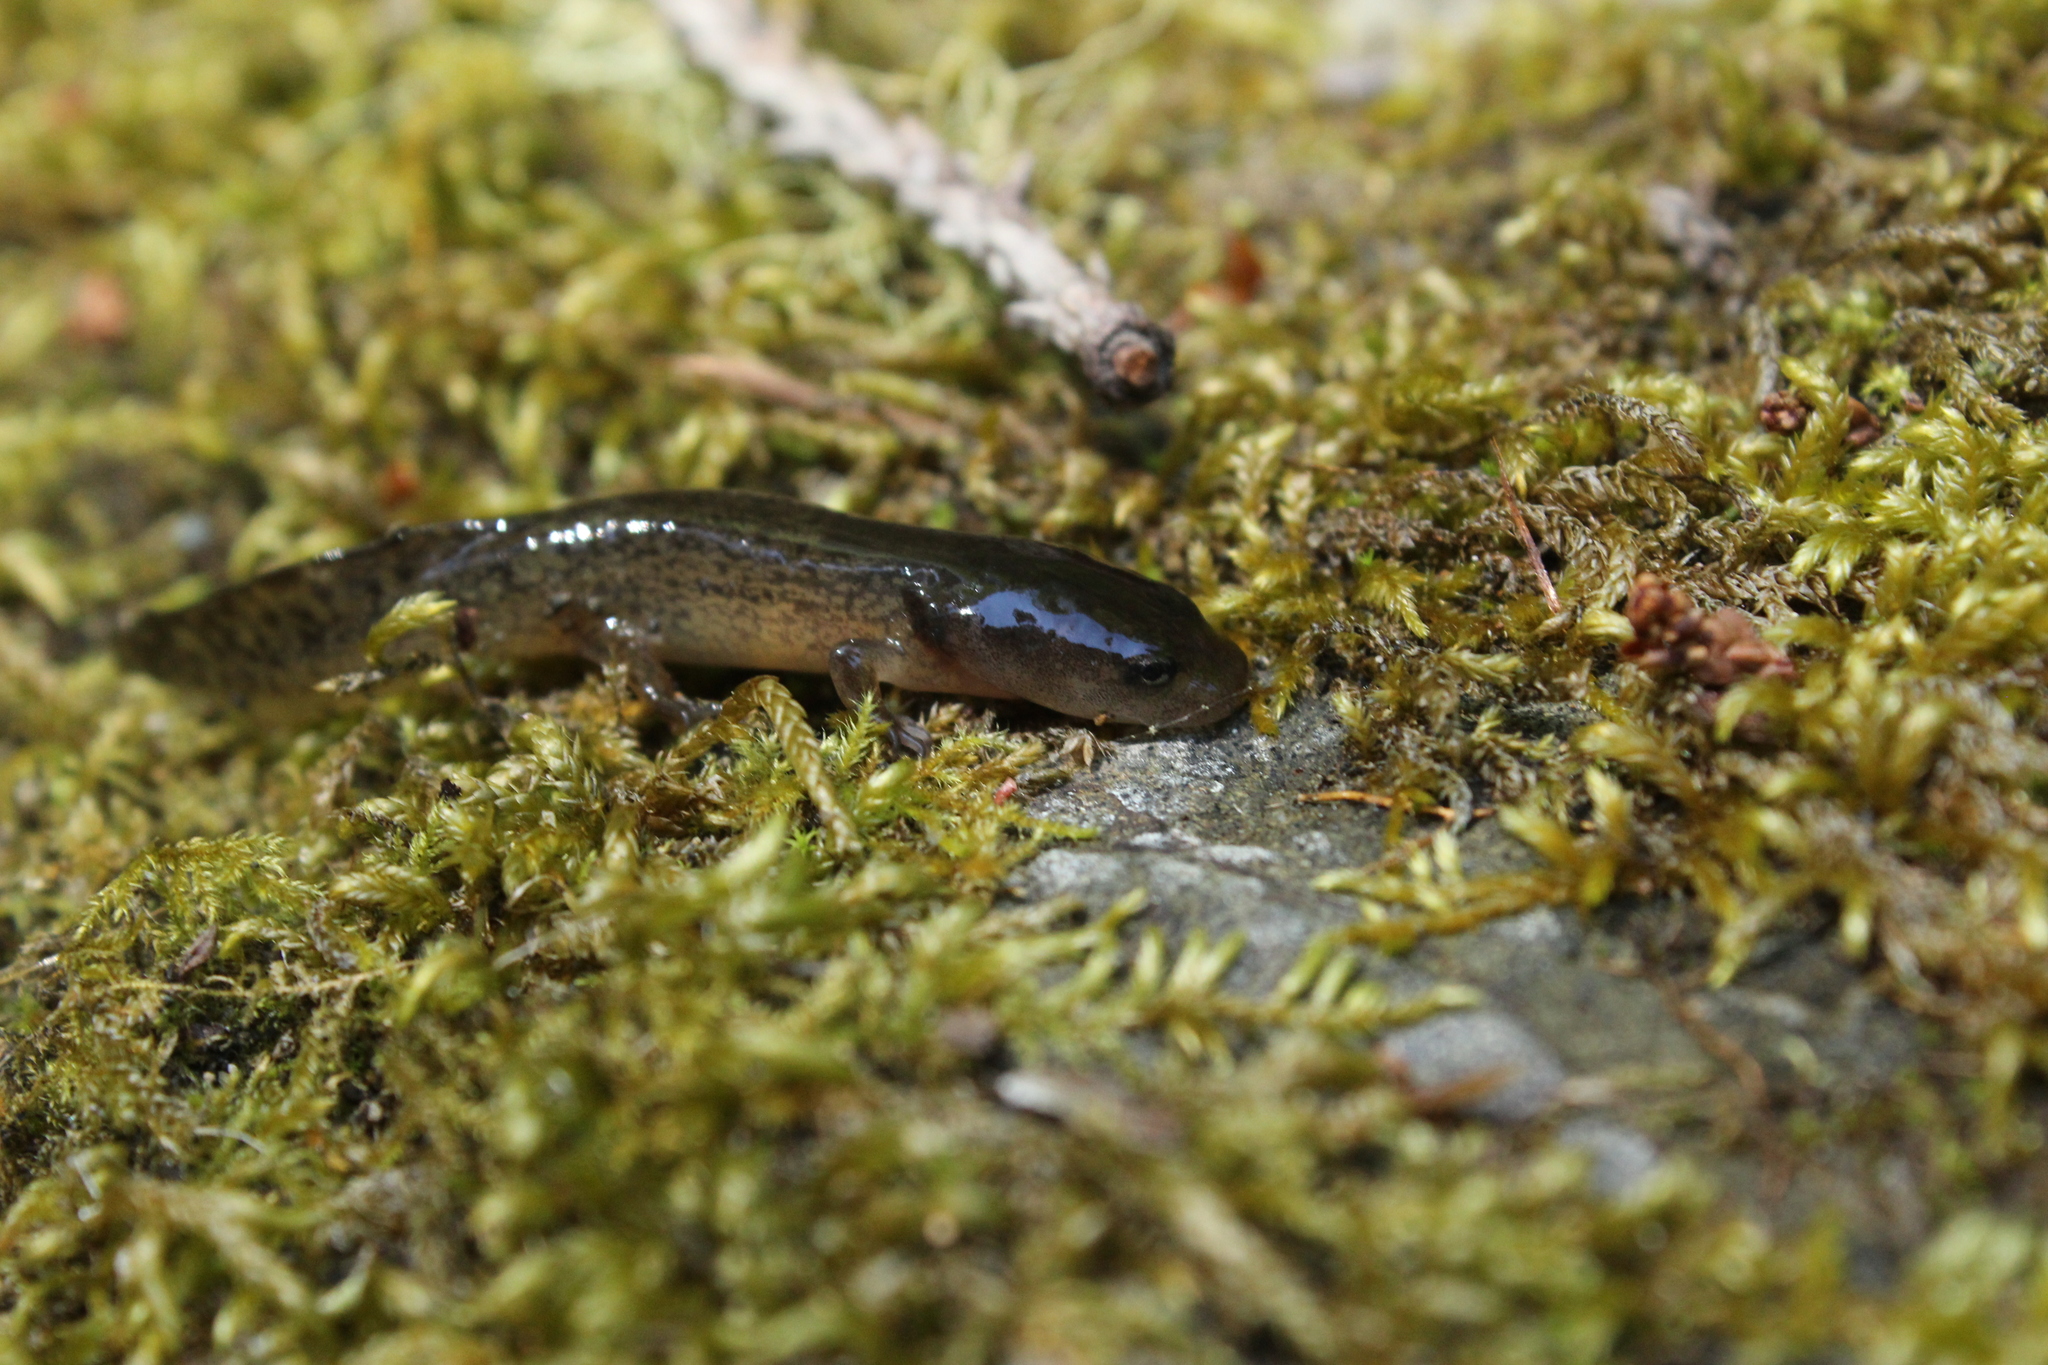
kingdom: Animalia
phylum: Chordata
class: Amphibia
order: Caudata
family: Ambystomatidae
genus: Dicamptodon
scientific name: Dicamptodon ensatus
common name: California giant salamander
